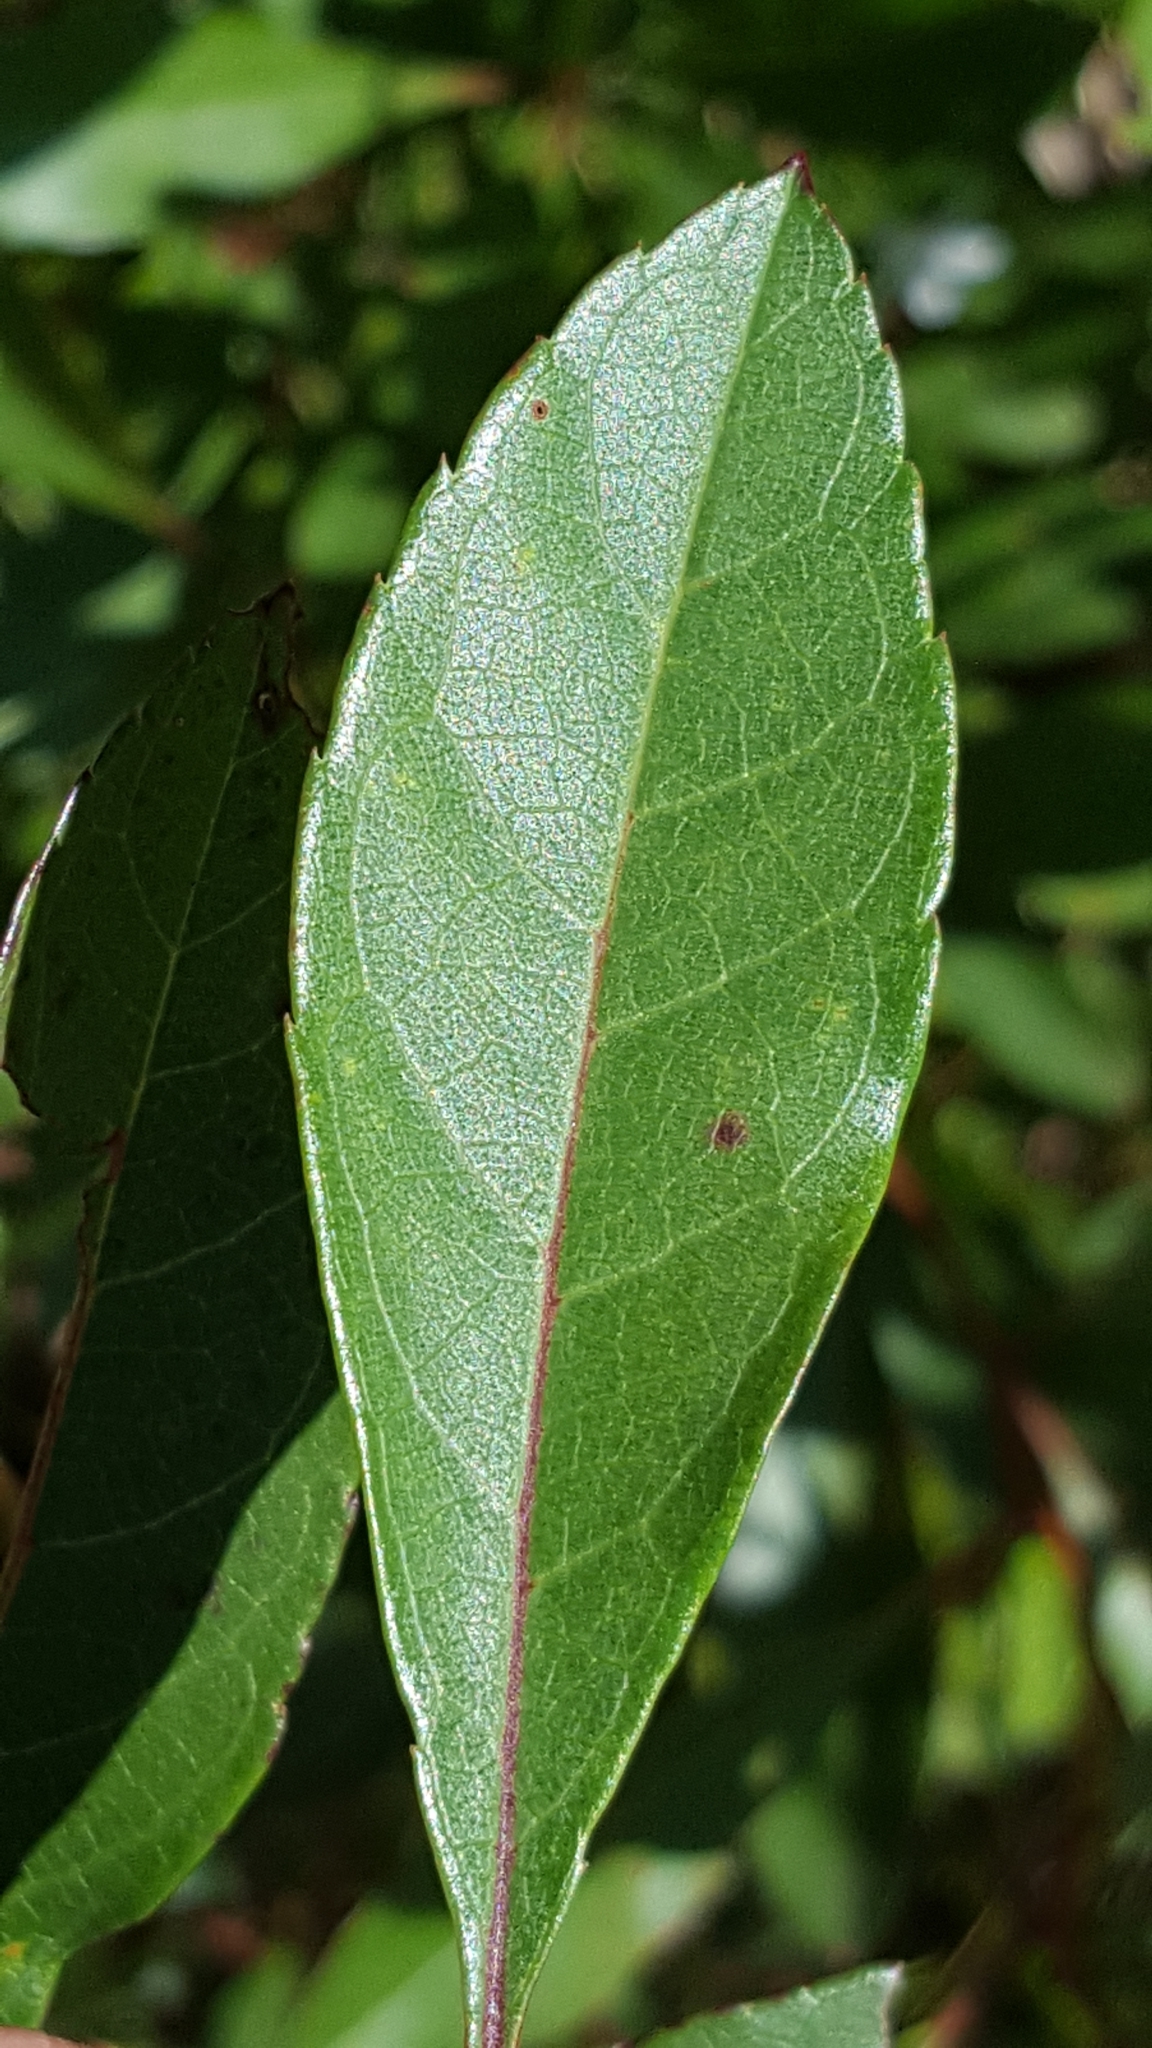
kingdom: Plantae
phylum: Tracheophyta
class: Magnoliopsida
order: Rosales
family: Rosaceae
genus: Prunus
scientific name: Prunus susquehanae
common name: Sesquehana sandcherry
